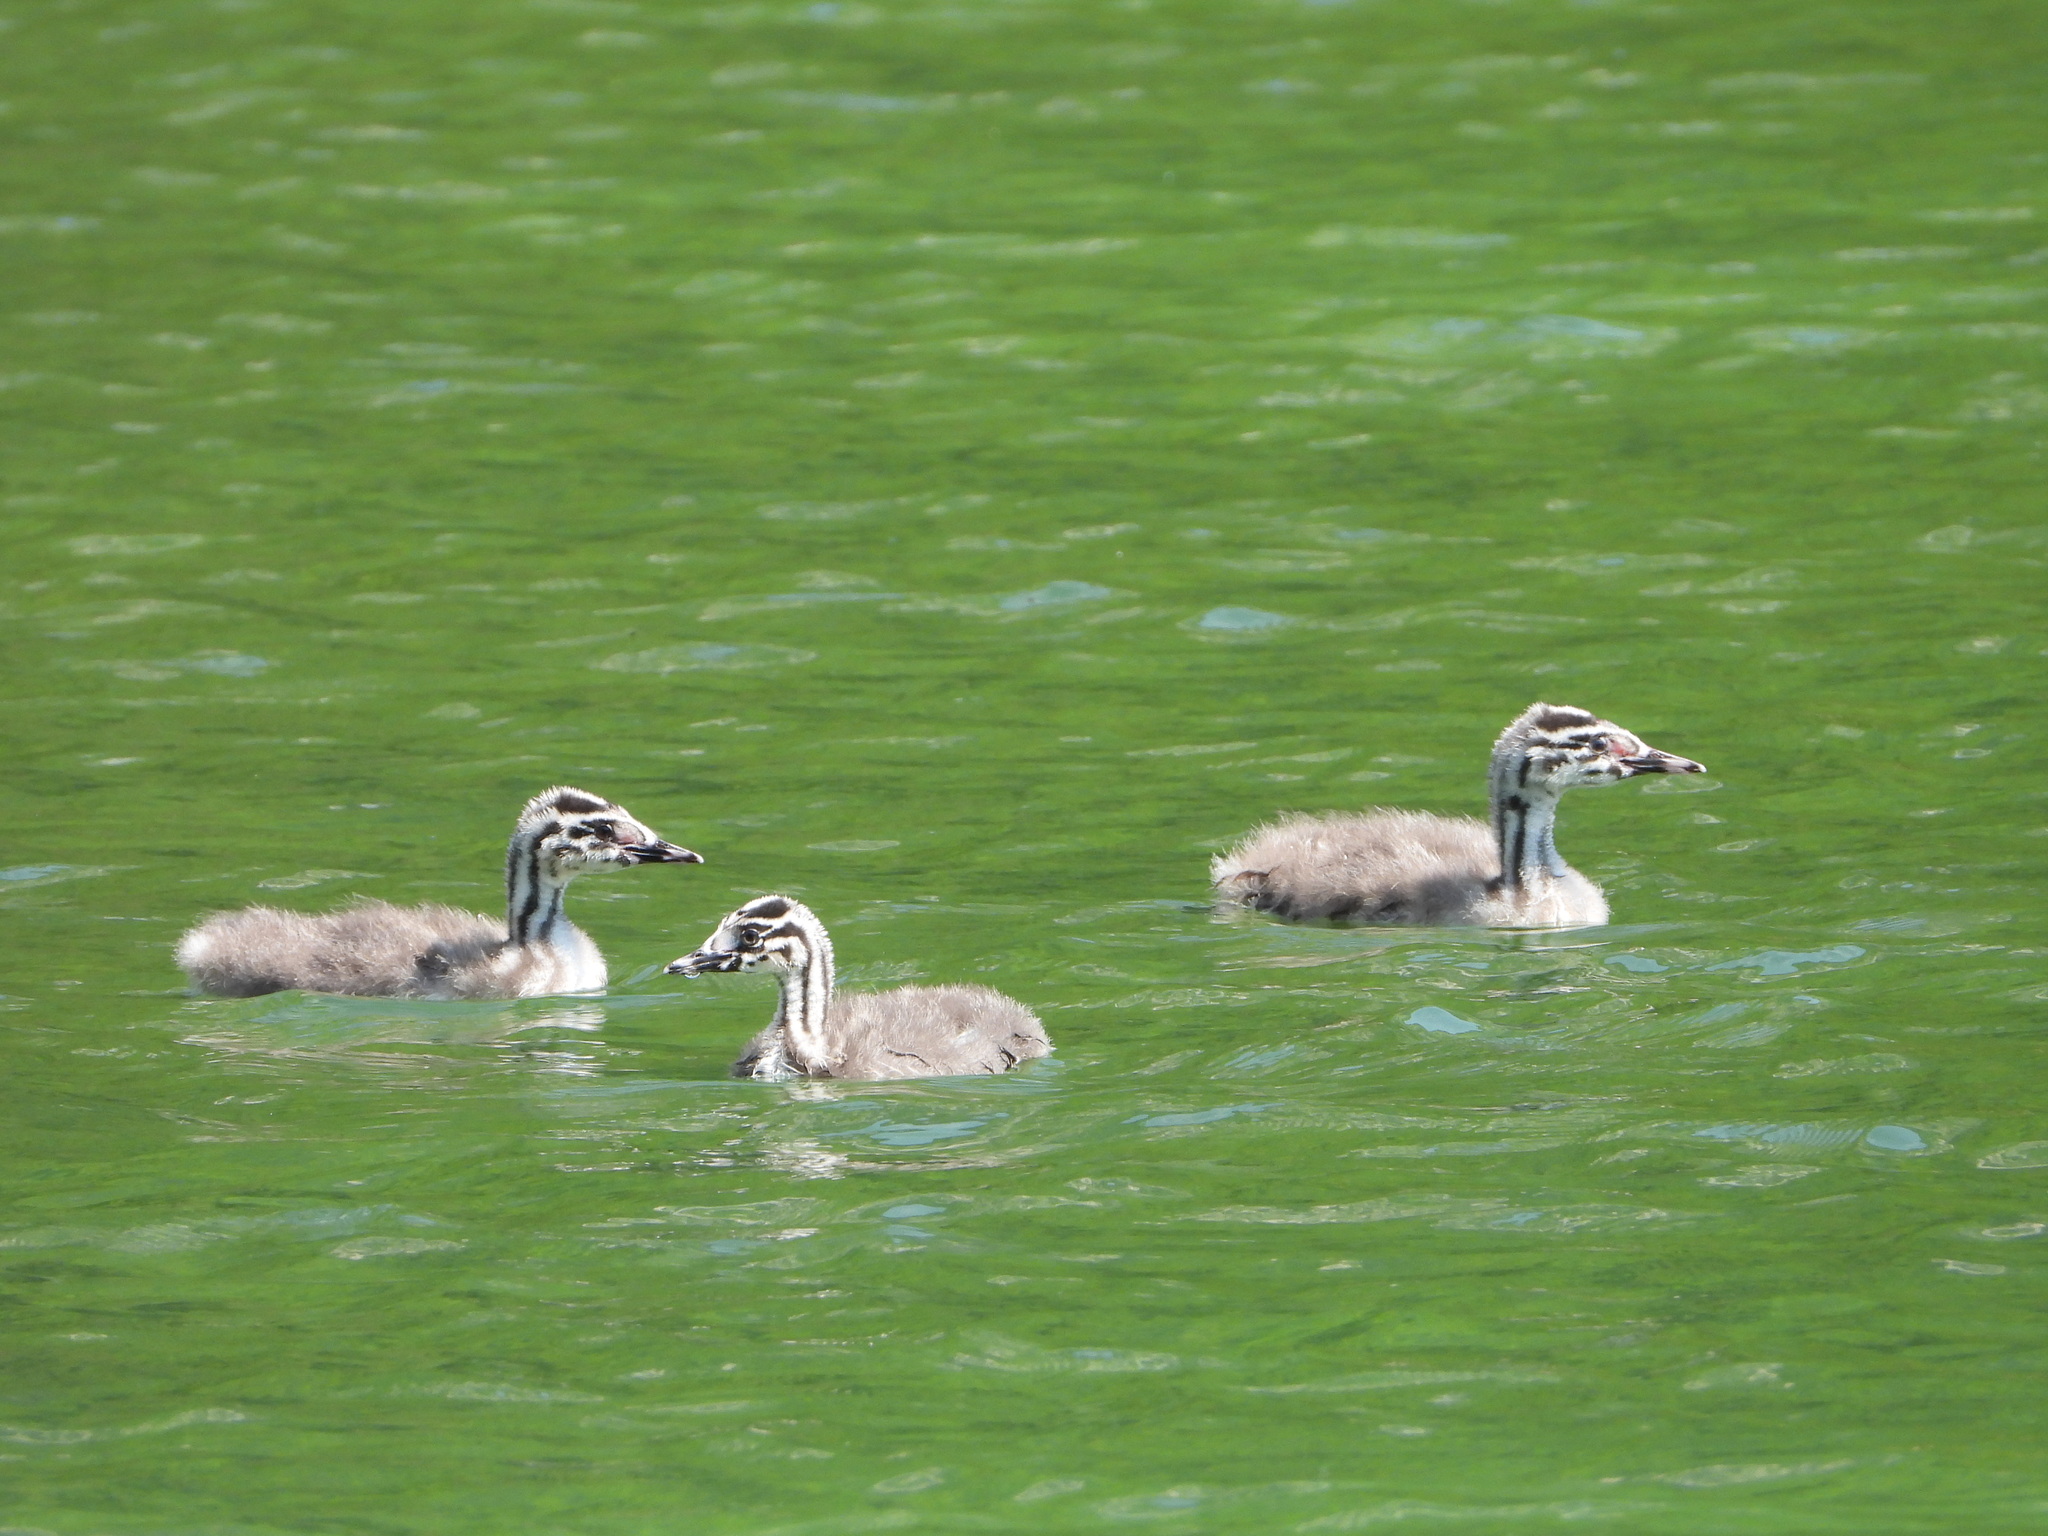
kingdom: Animalia
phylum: Chordata
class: Aves
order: Podicipediformes
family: Podicipedidae
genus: Podiceps
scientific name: Podiceps cristatus
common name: Great crested grebe
